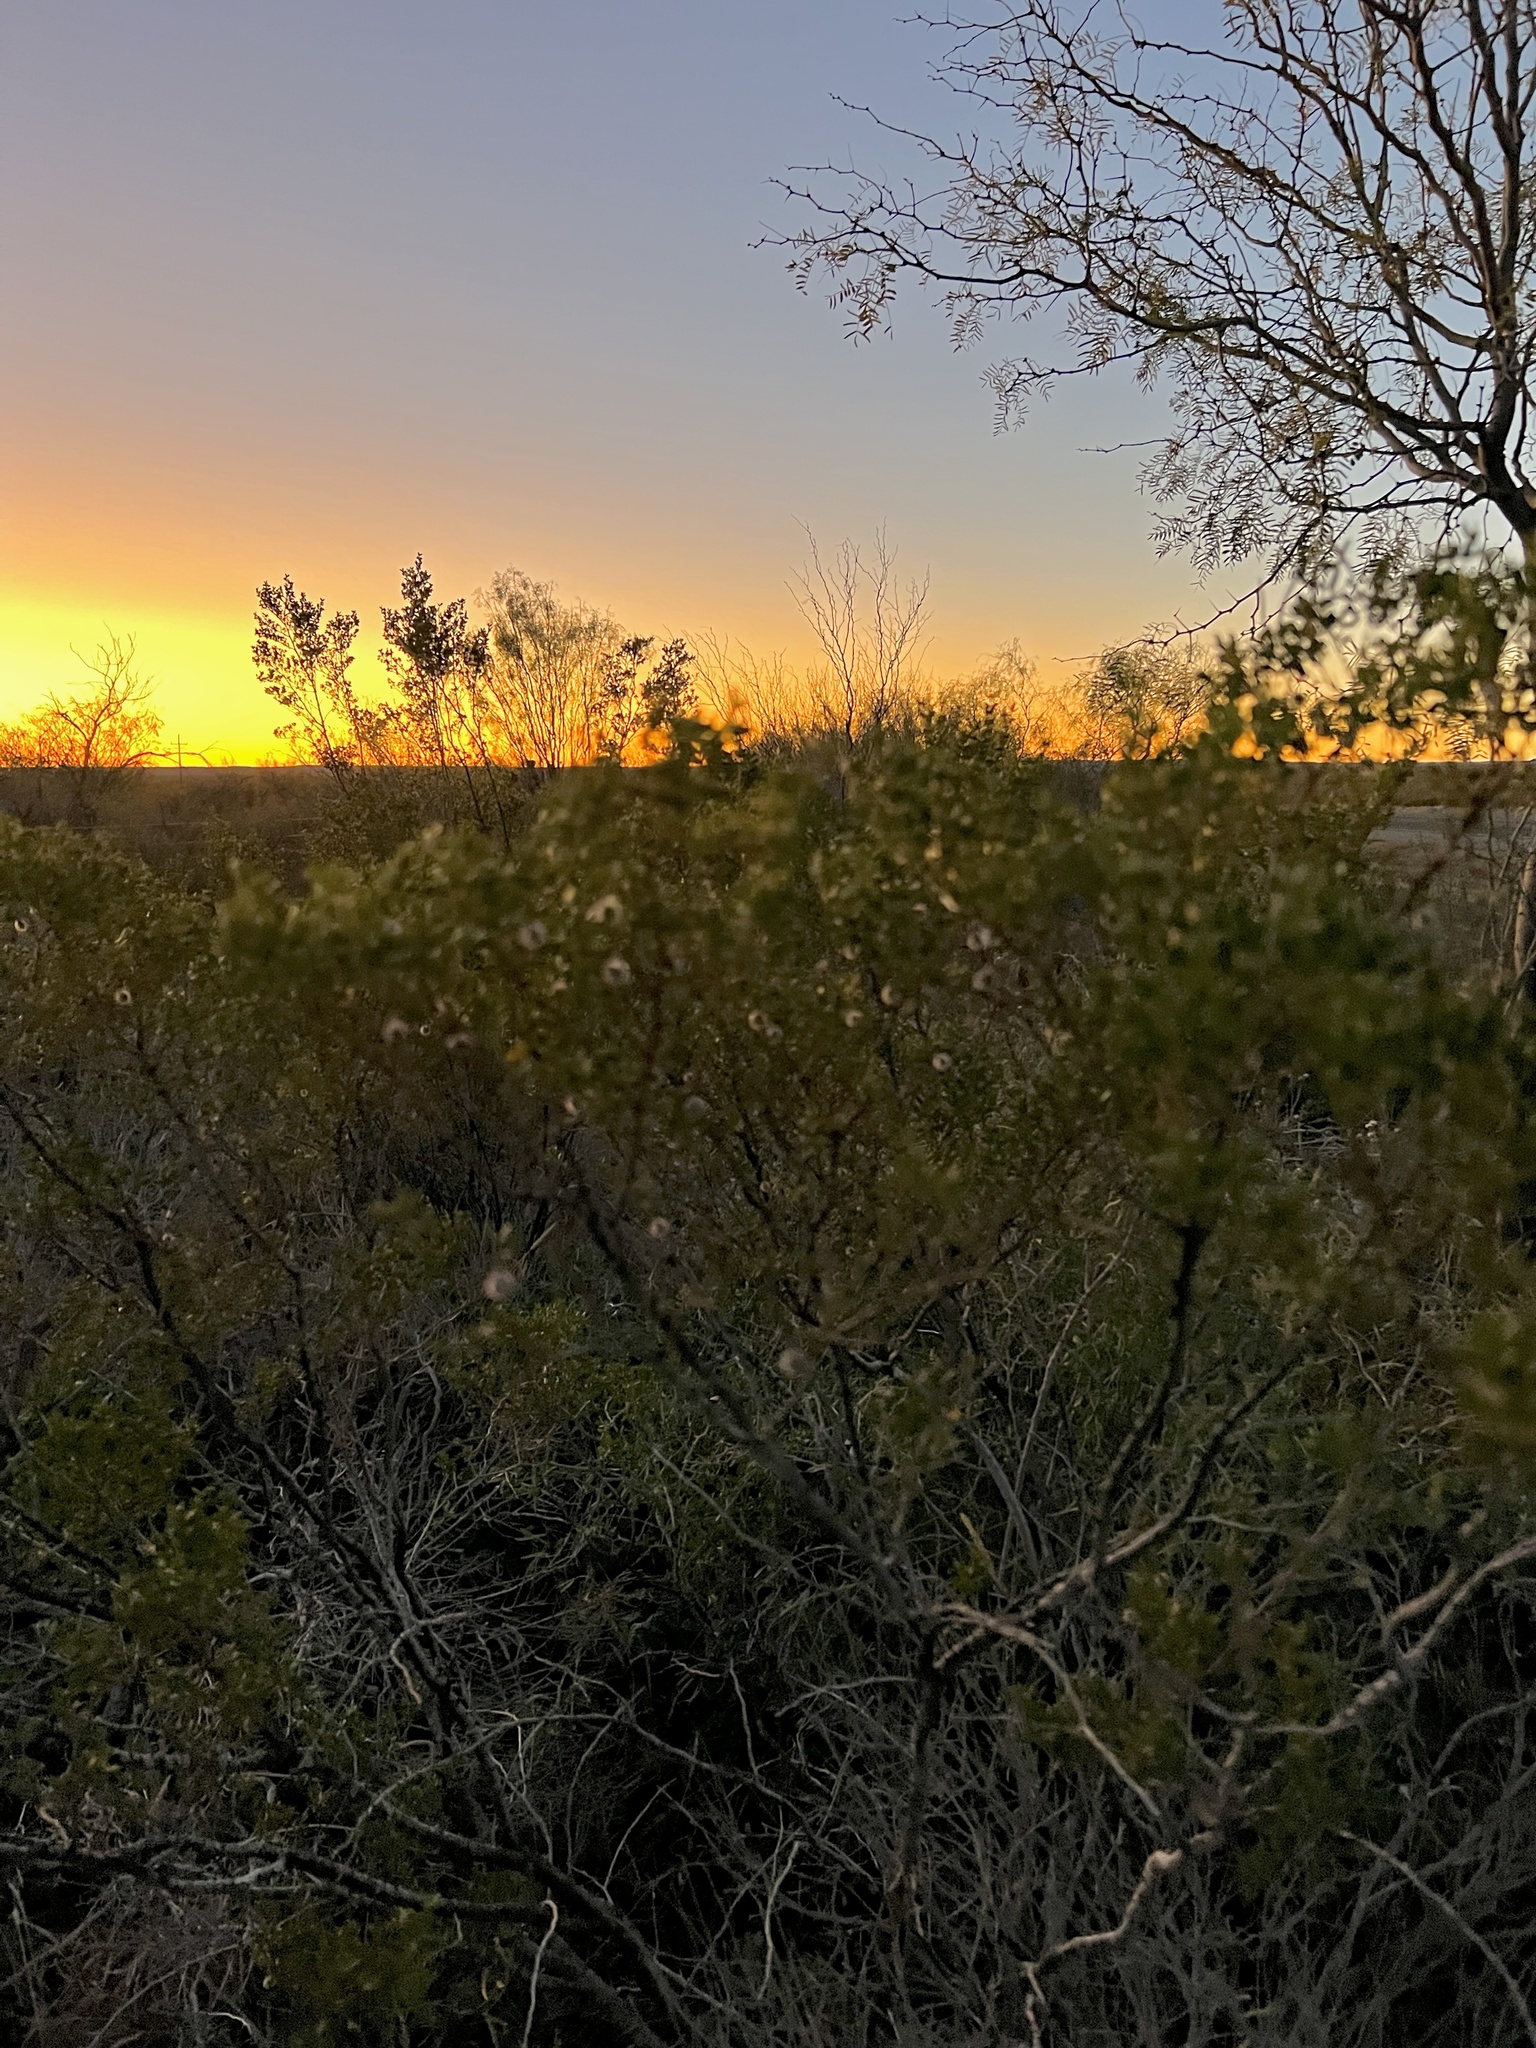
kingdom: Plantae
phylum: Tracheophyta
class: Magnoliopsida
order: Zygophyllales
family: Zygophyllaceae
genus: Larrea
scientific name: Larrea tridentata
